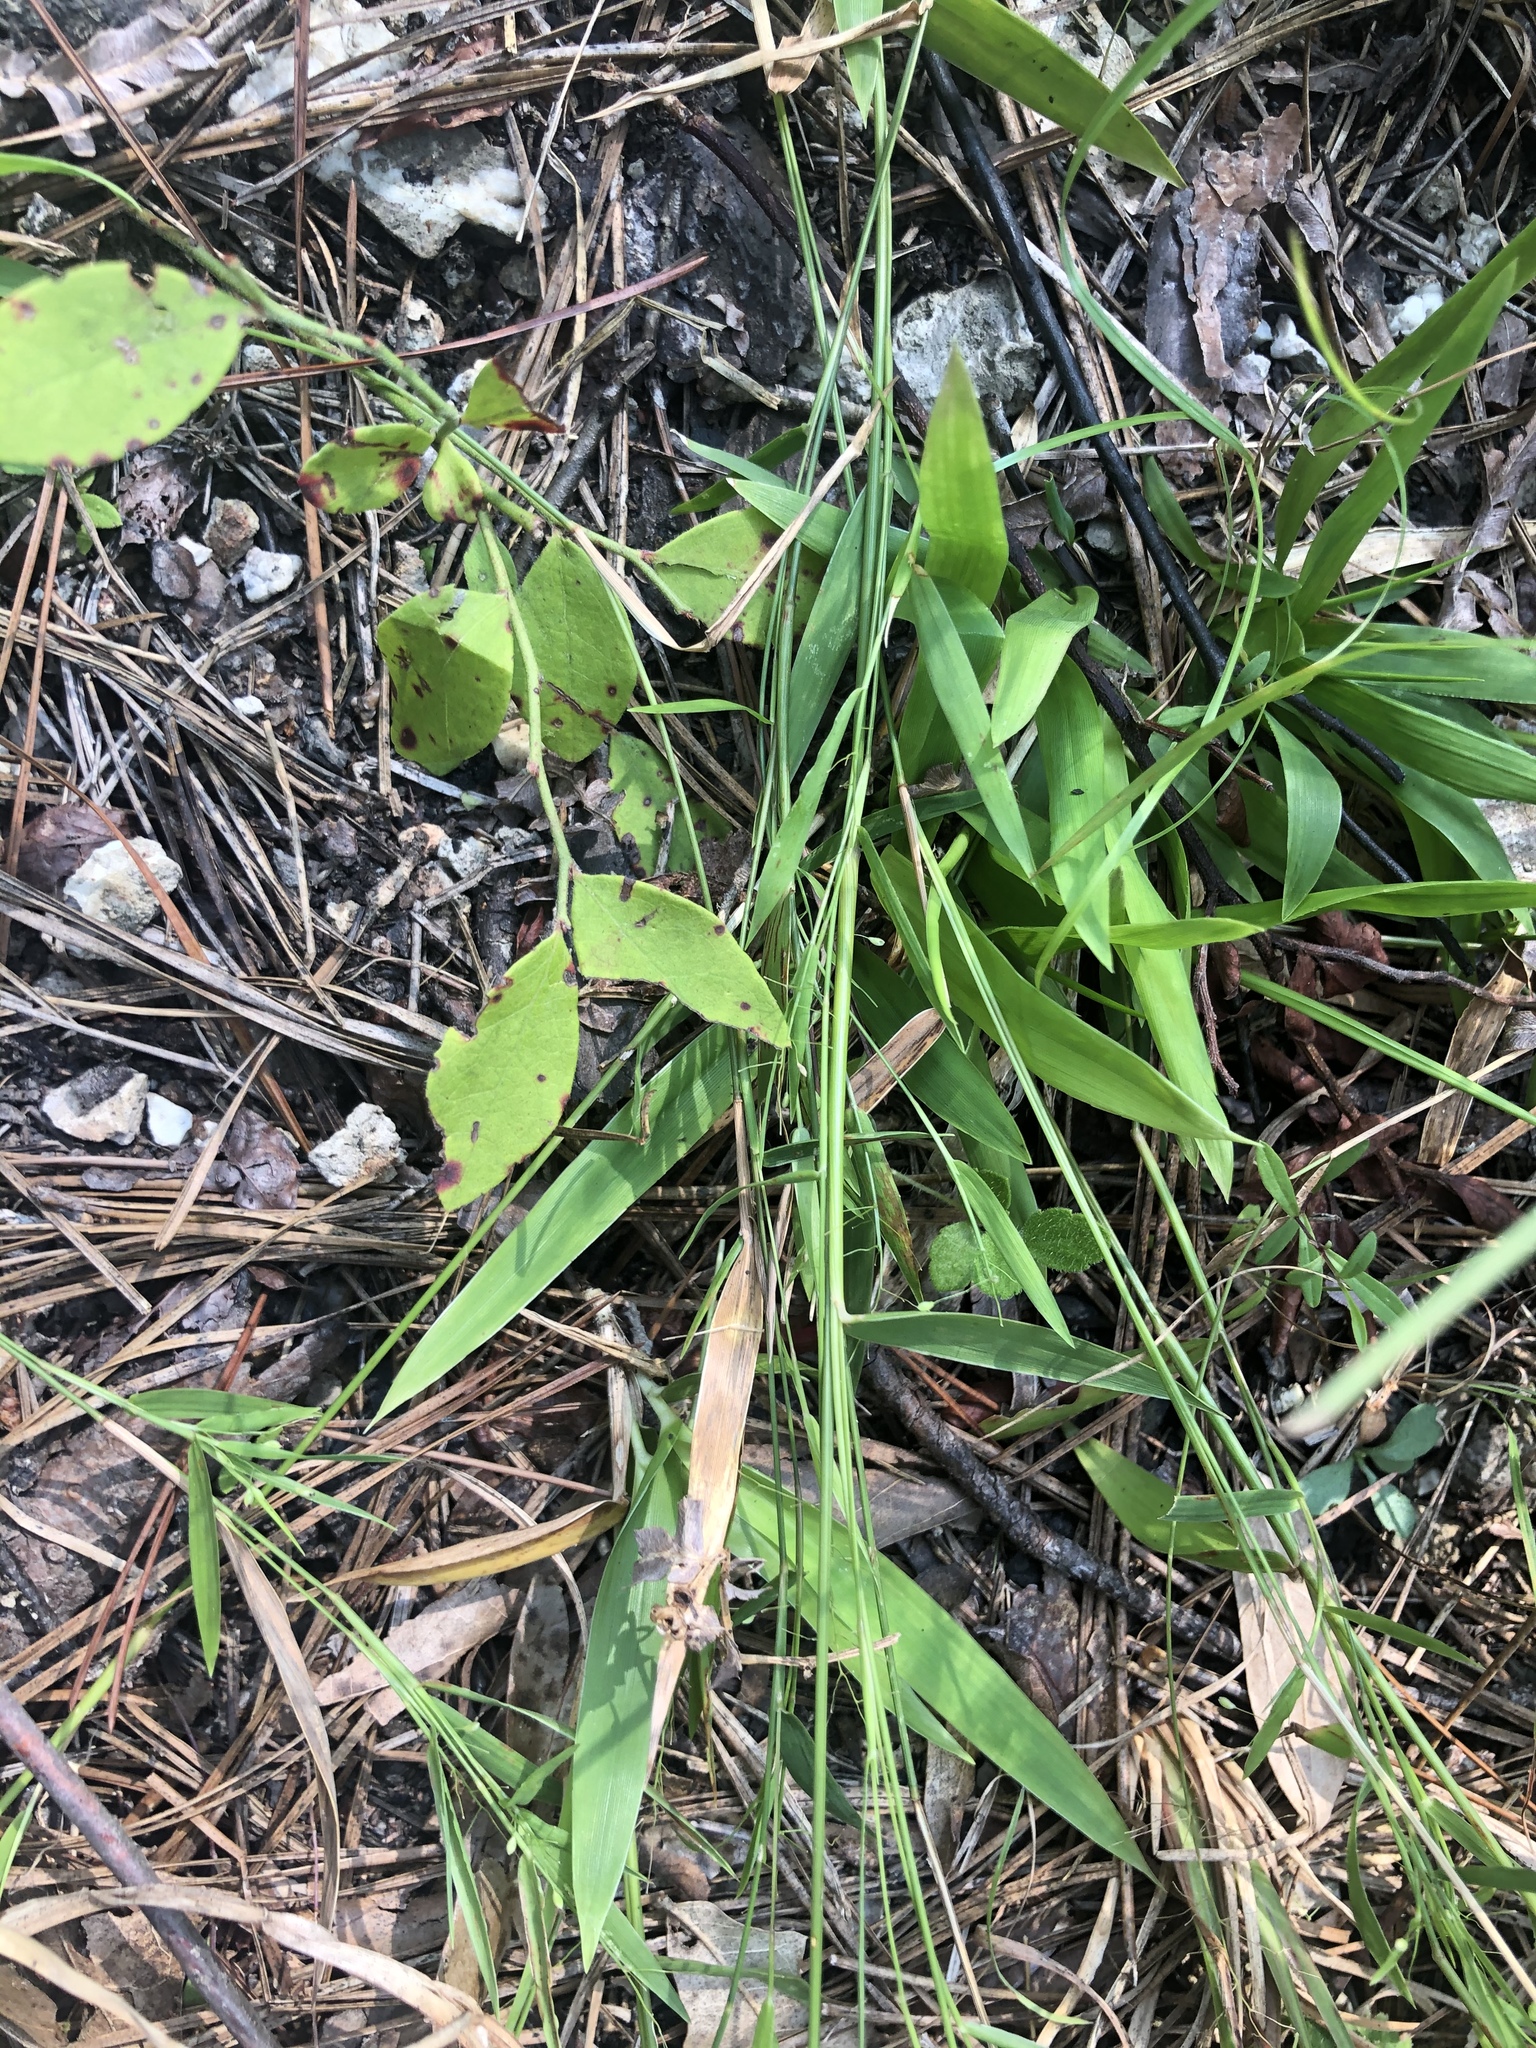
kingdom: Plantae
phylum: Tracheophyta
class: Liliopsida
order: Poales
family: Poaceae
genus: Dichanthelium
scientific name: Dichanthelium tenue
